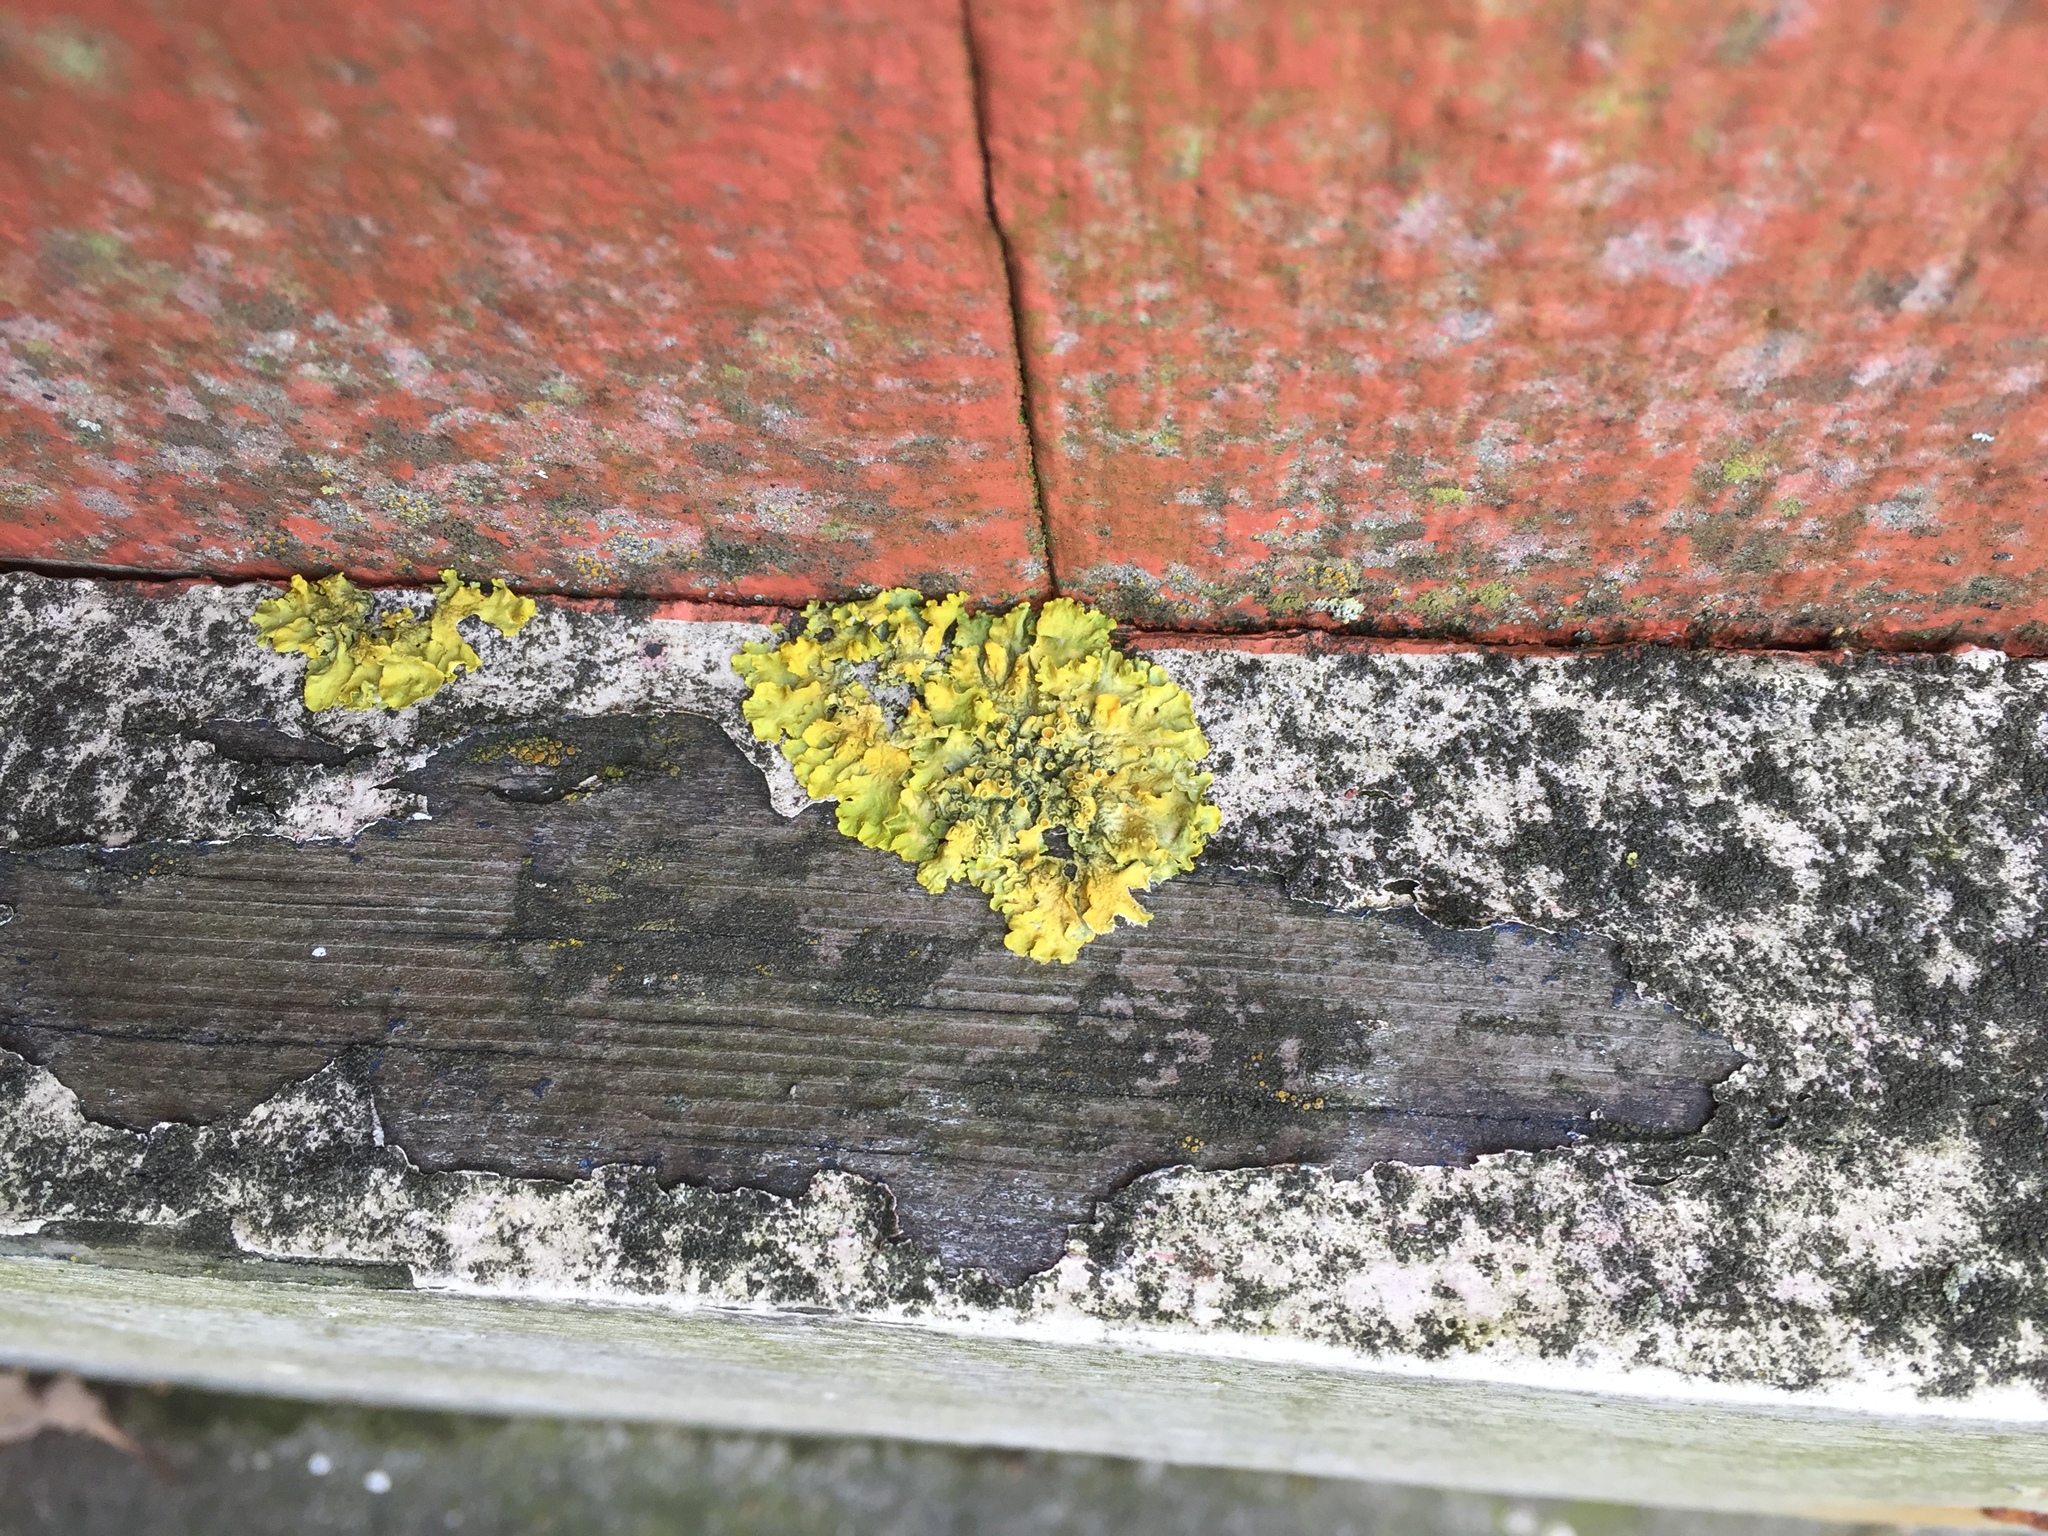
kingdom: Fungi
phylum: Ascomycota
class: Lecanoromycetes
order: Teloschistales
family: Teloschistaceae
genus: Xanthoria
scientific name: Xanthoria parietina
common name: Common orange lichen
